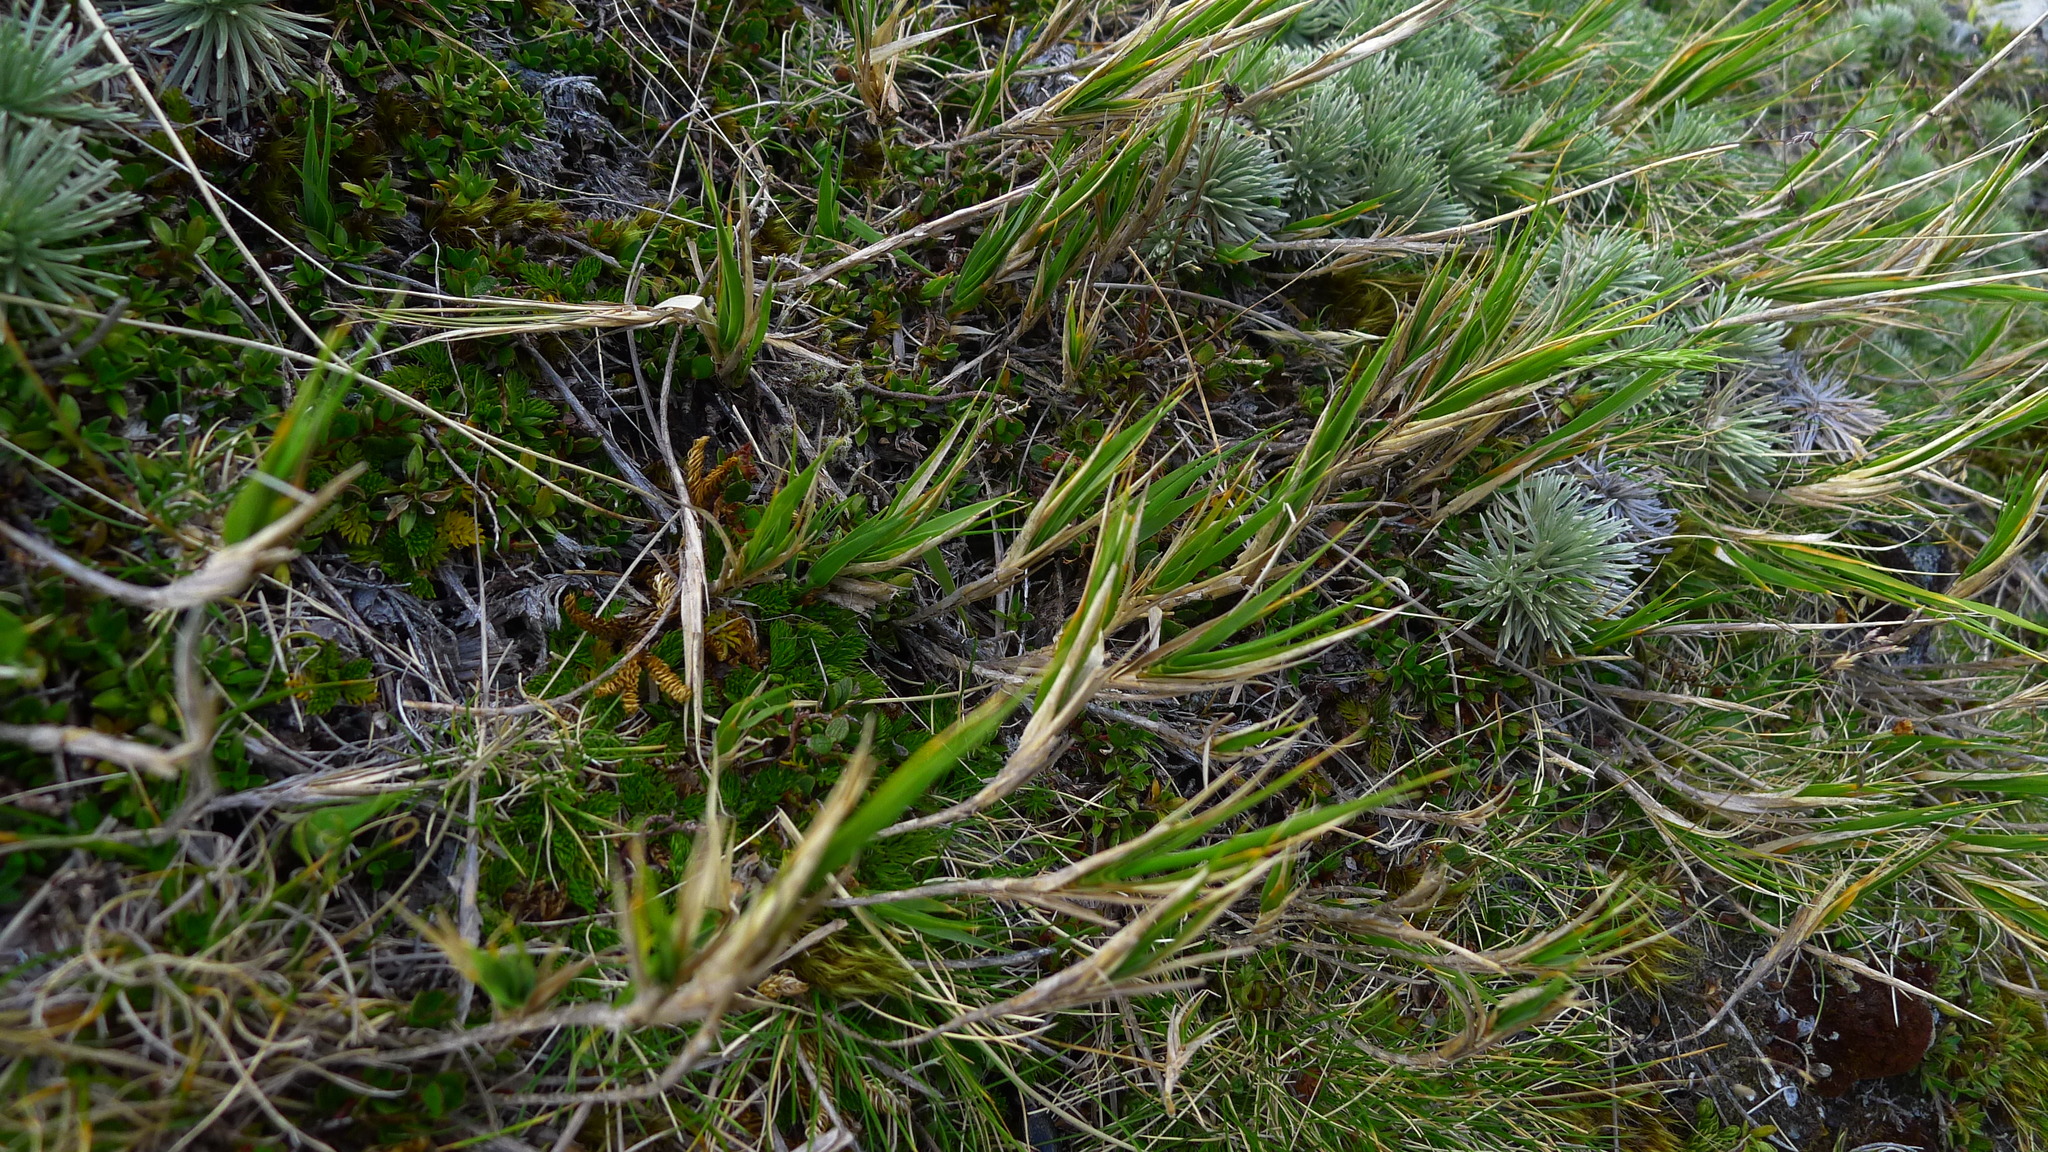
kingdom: Plantae
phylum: Tracheophyta
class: Liliopsida
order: Poales
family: Poaceae
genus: Zotovia
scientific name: Zotovia colensoi
